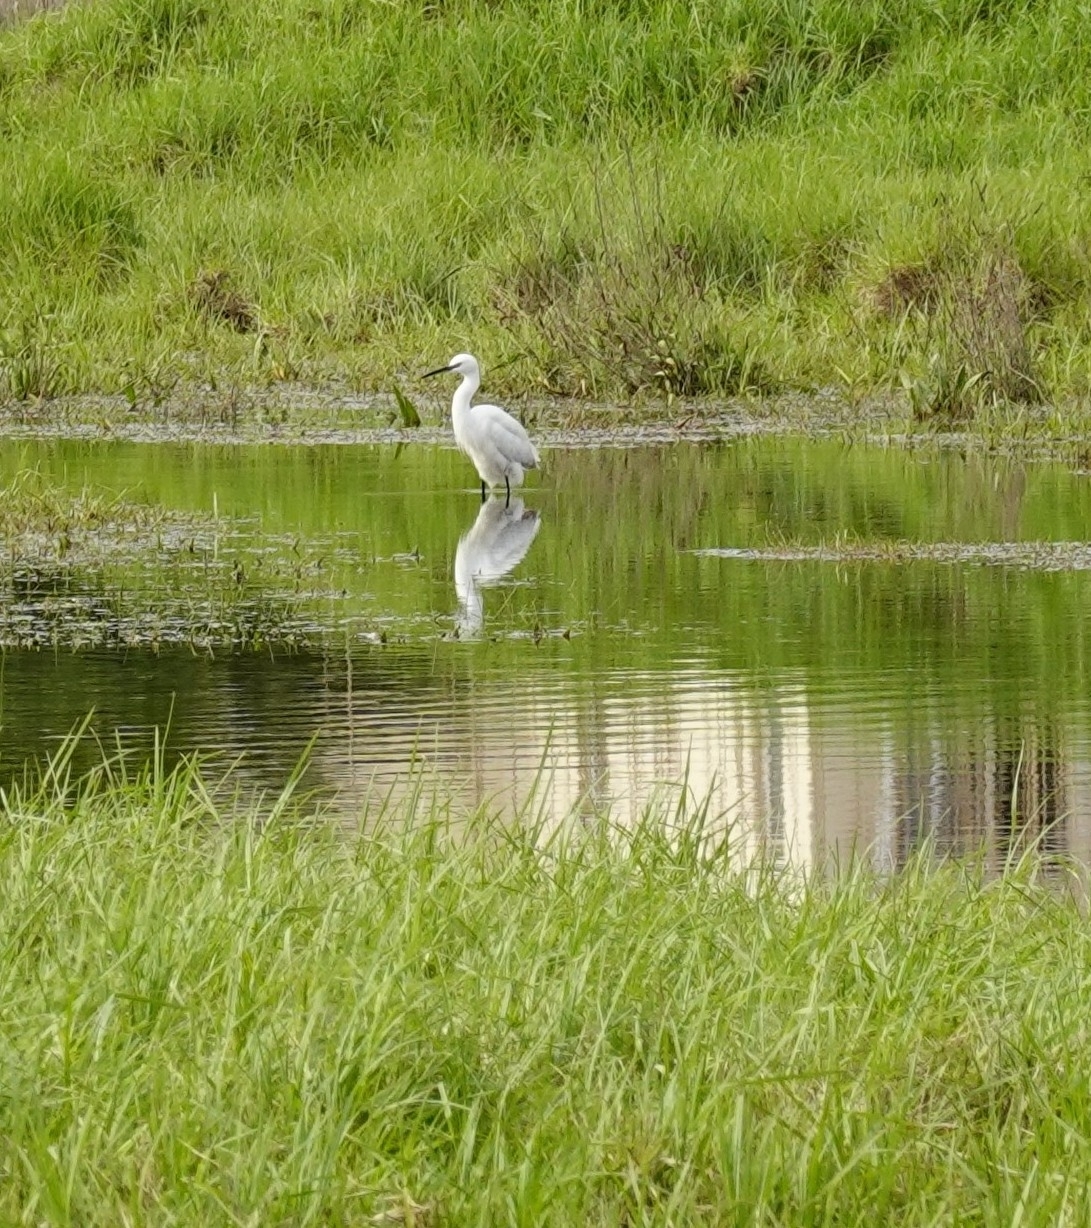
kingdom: Animalia
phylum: Chordata
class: Aves
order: Pelecaniformes
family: Ardeidae
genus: Egretta
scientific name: Egretta garzetta
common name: Little egret
